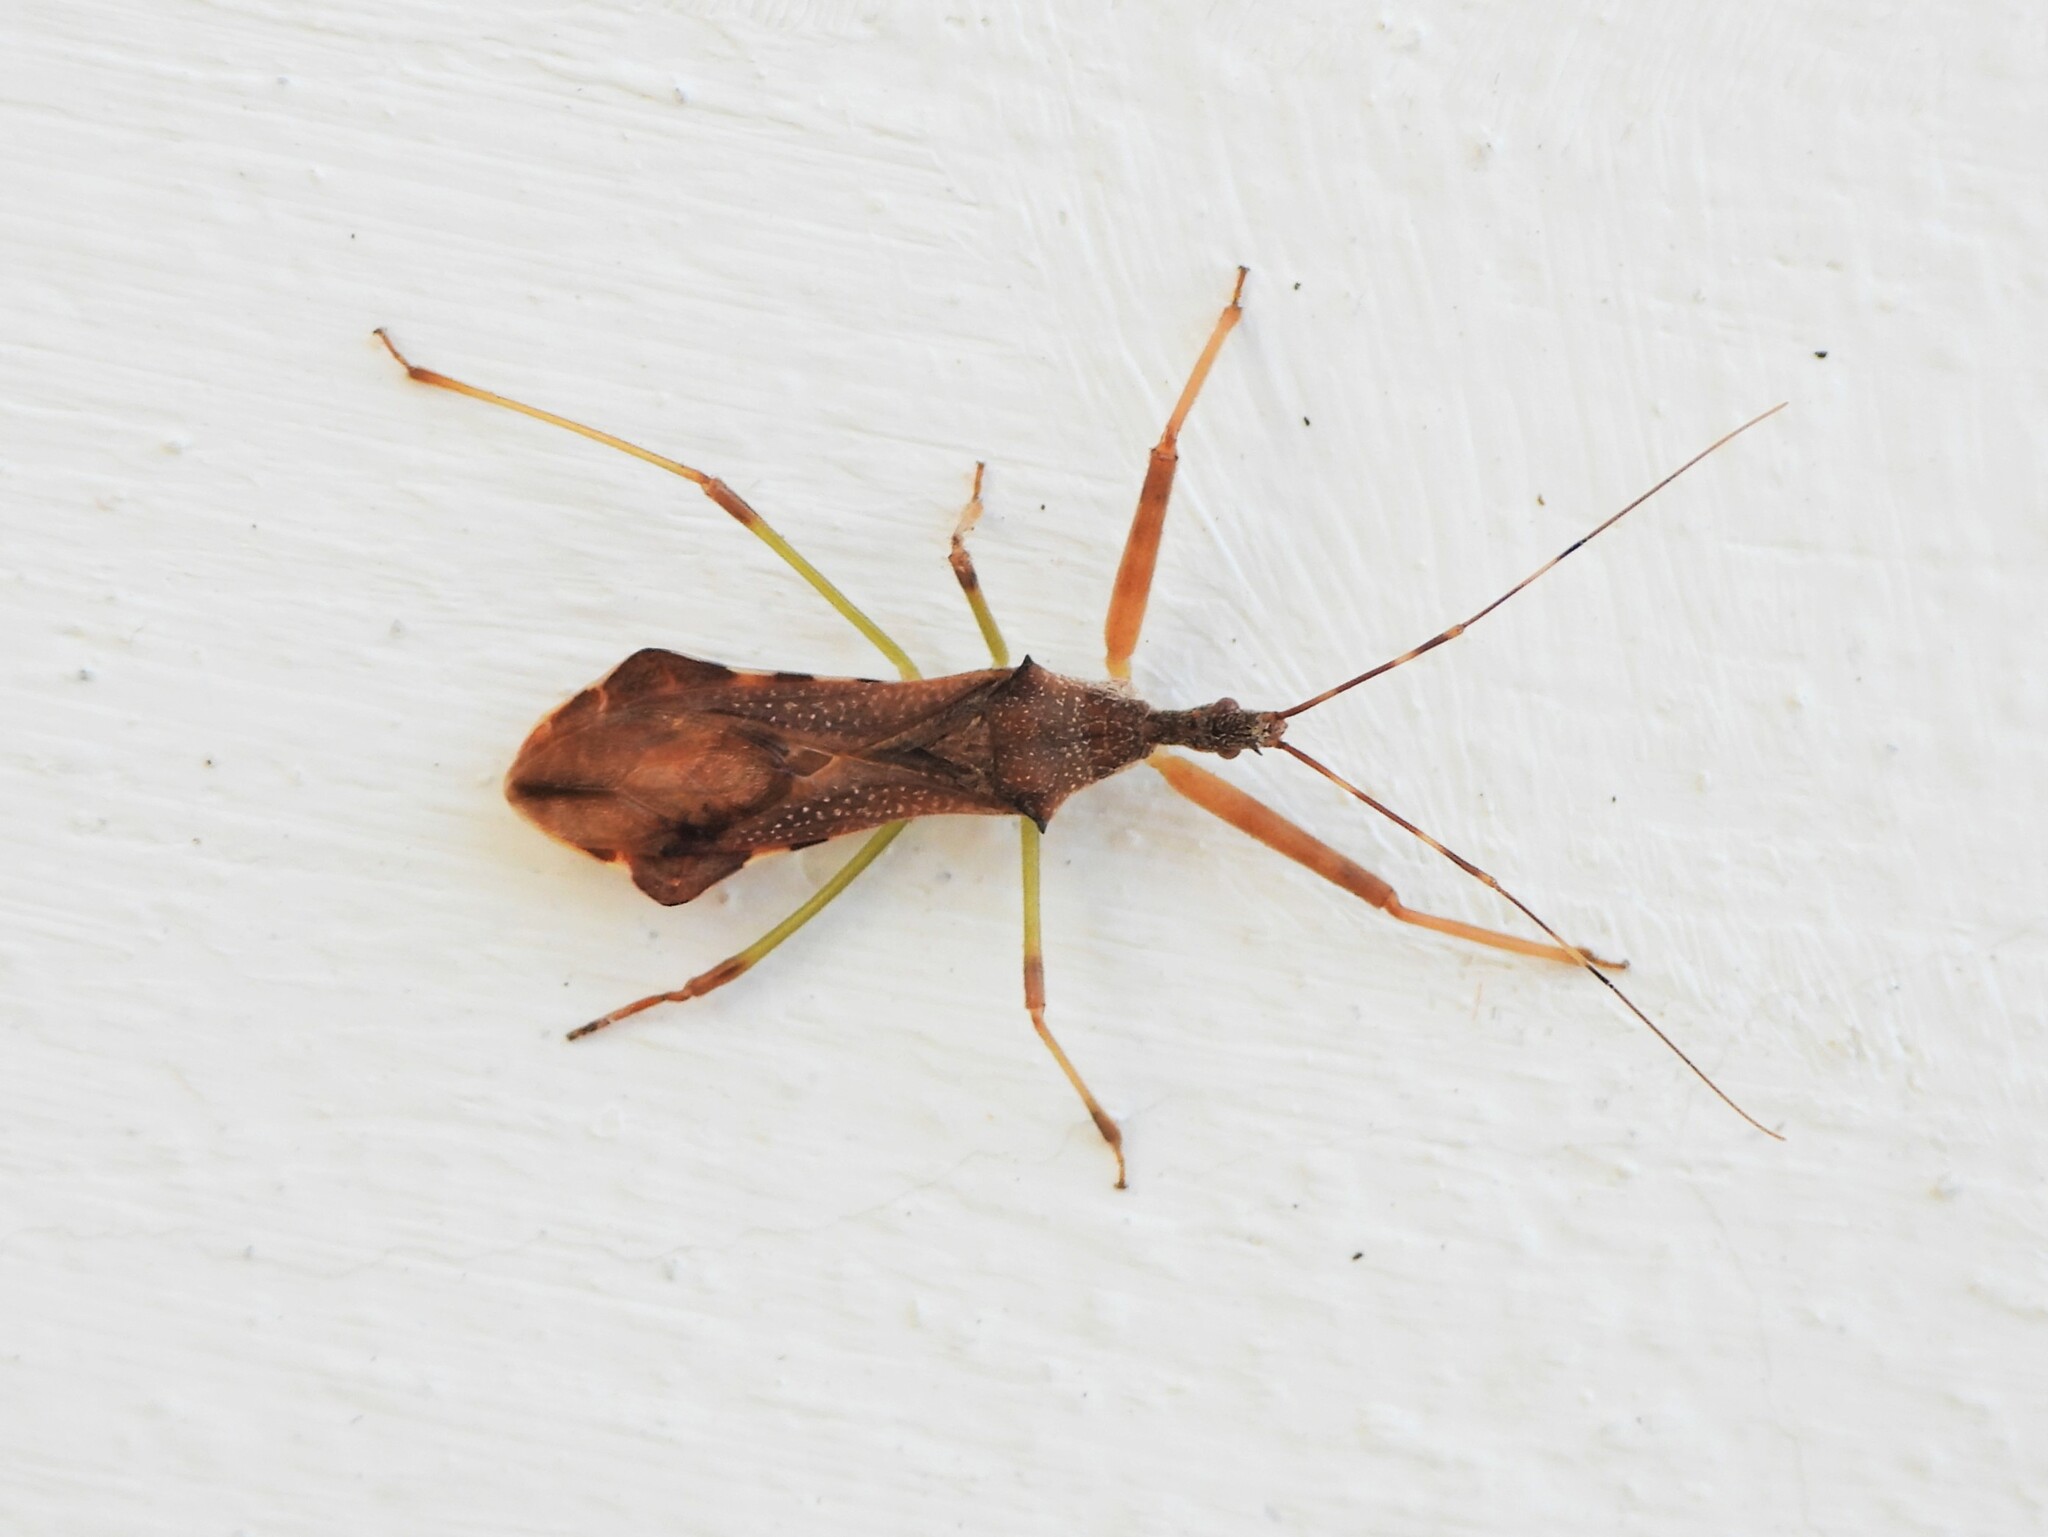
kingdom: Animalia
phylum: Arthropoda
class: Insecta
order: Hemiptera
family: Reduviidae
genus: Nagusta
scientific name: Nagusta goedelii
